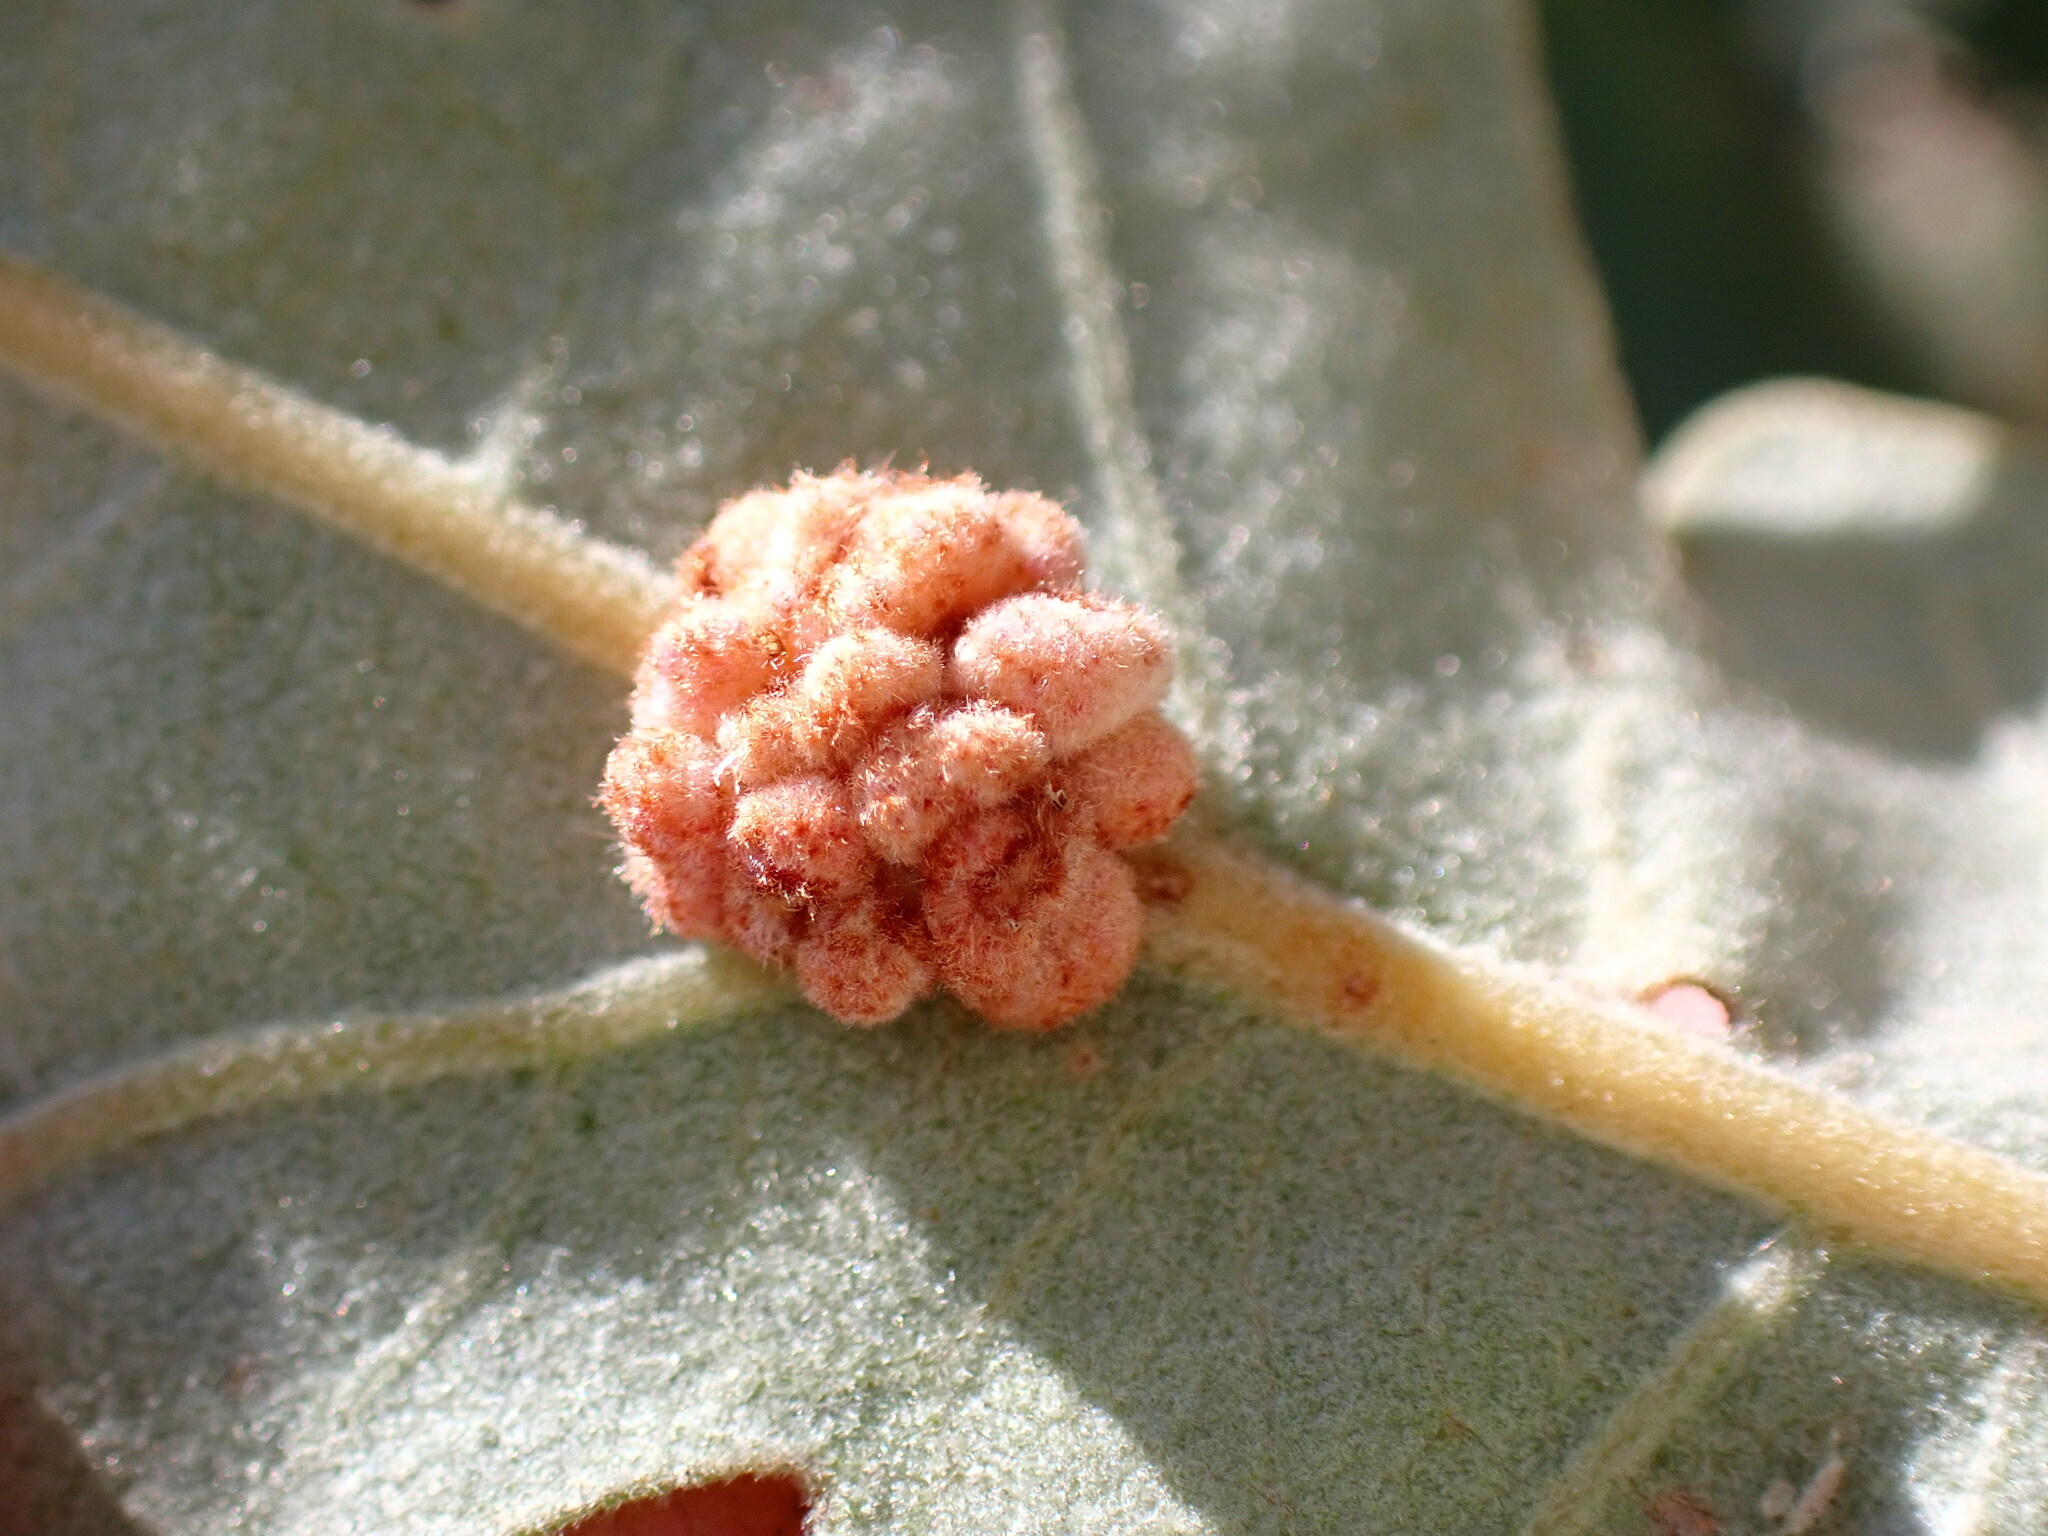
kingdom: Animalia
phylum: Arthropoda
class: Insecta
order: Hymenoptera
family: Cynipidae
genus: Andricus
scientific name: Andricus
